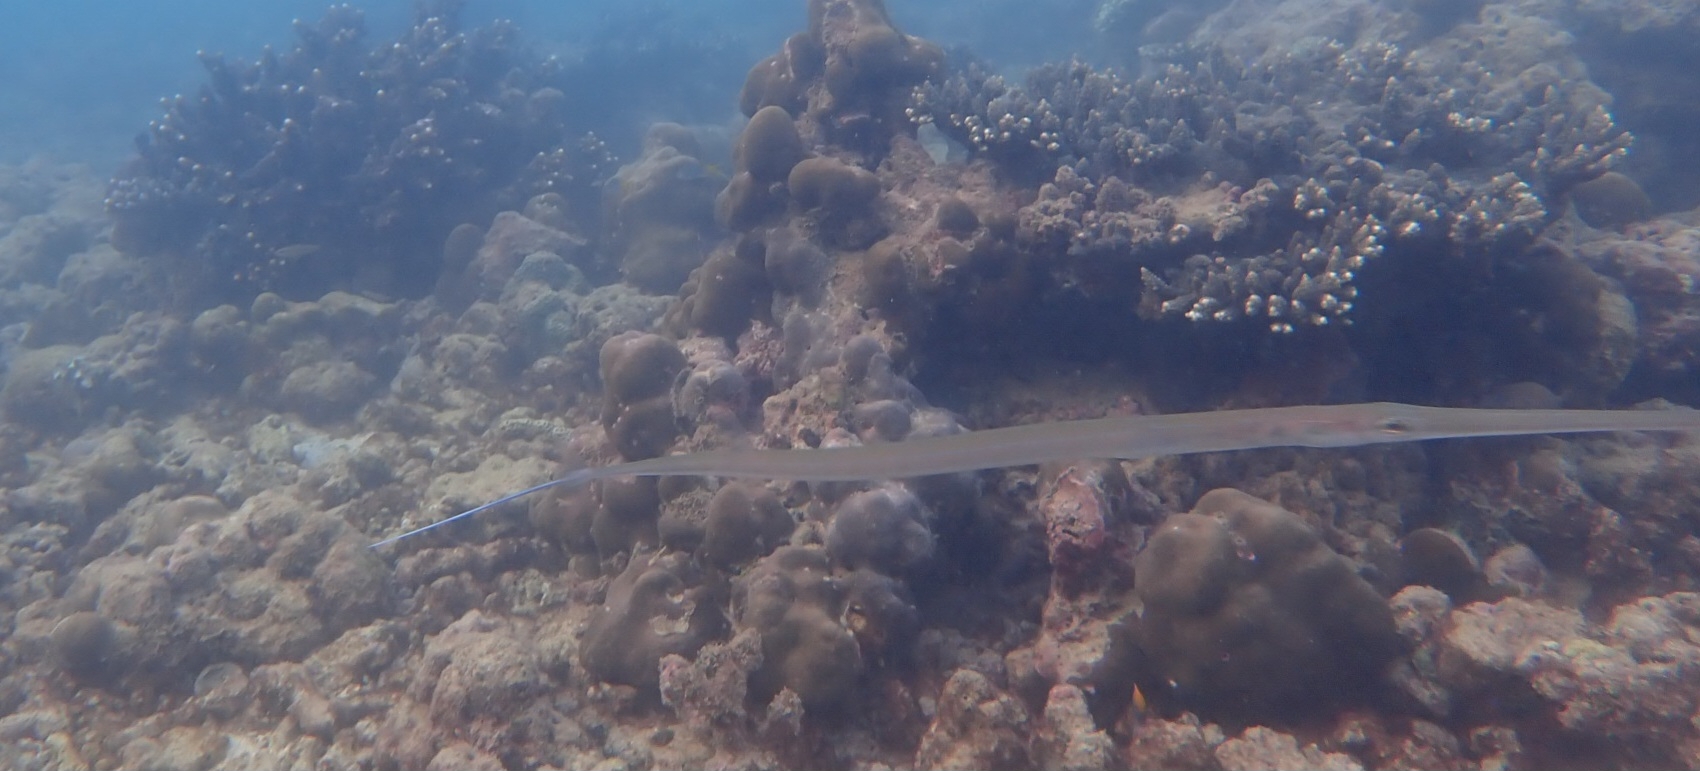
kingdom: Animalia
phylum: Chordata
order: Syngnathiformes
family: Fistulariidae
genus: Fistularia
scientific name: Fistularia commersonii
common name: Bluespotted cornetfish
